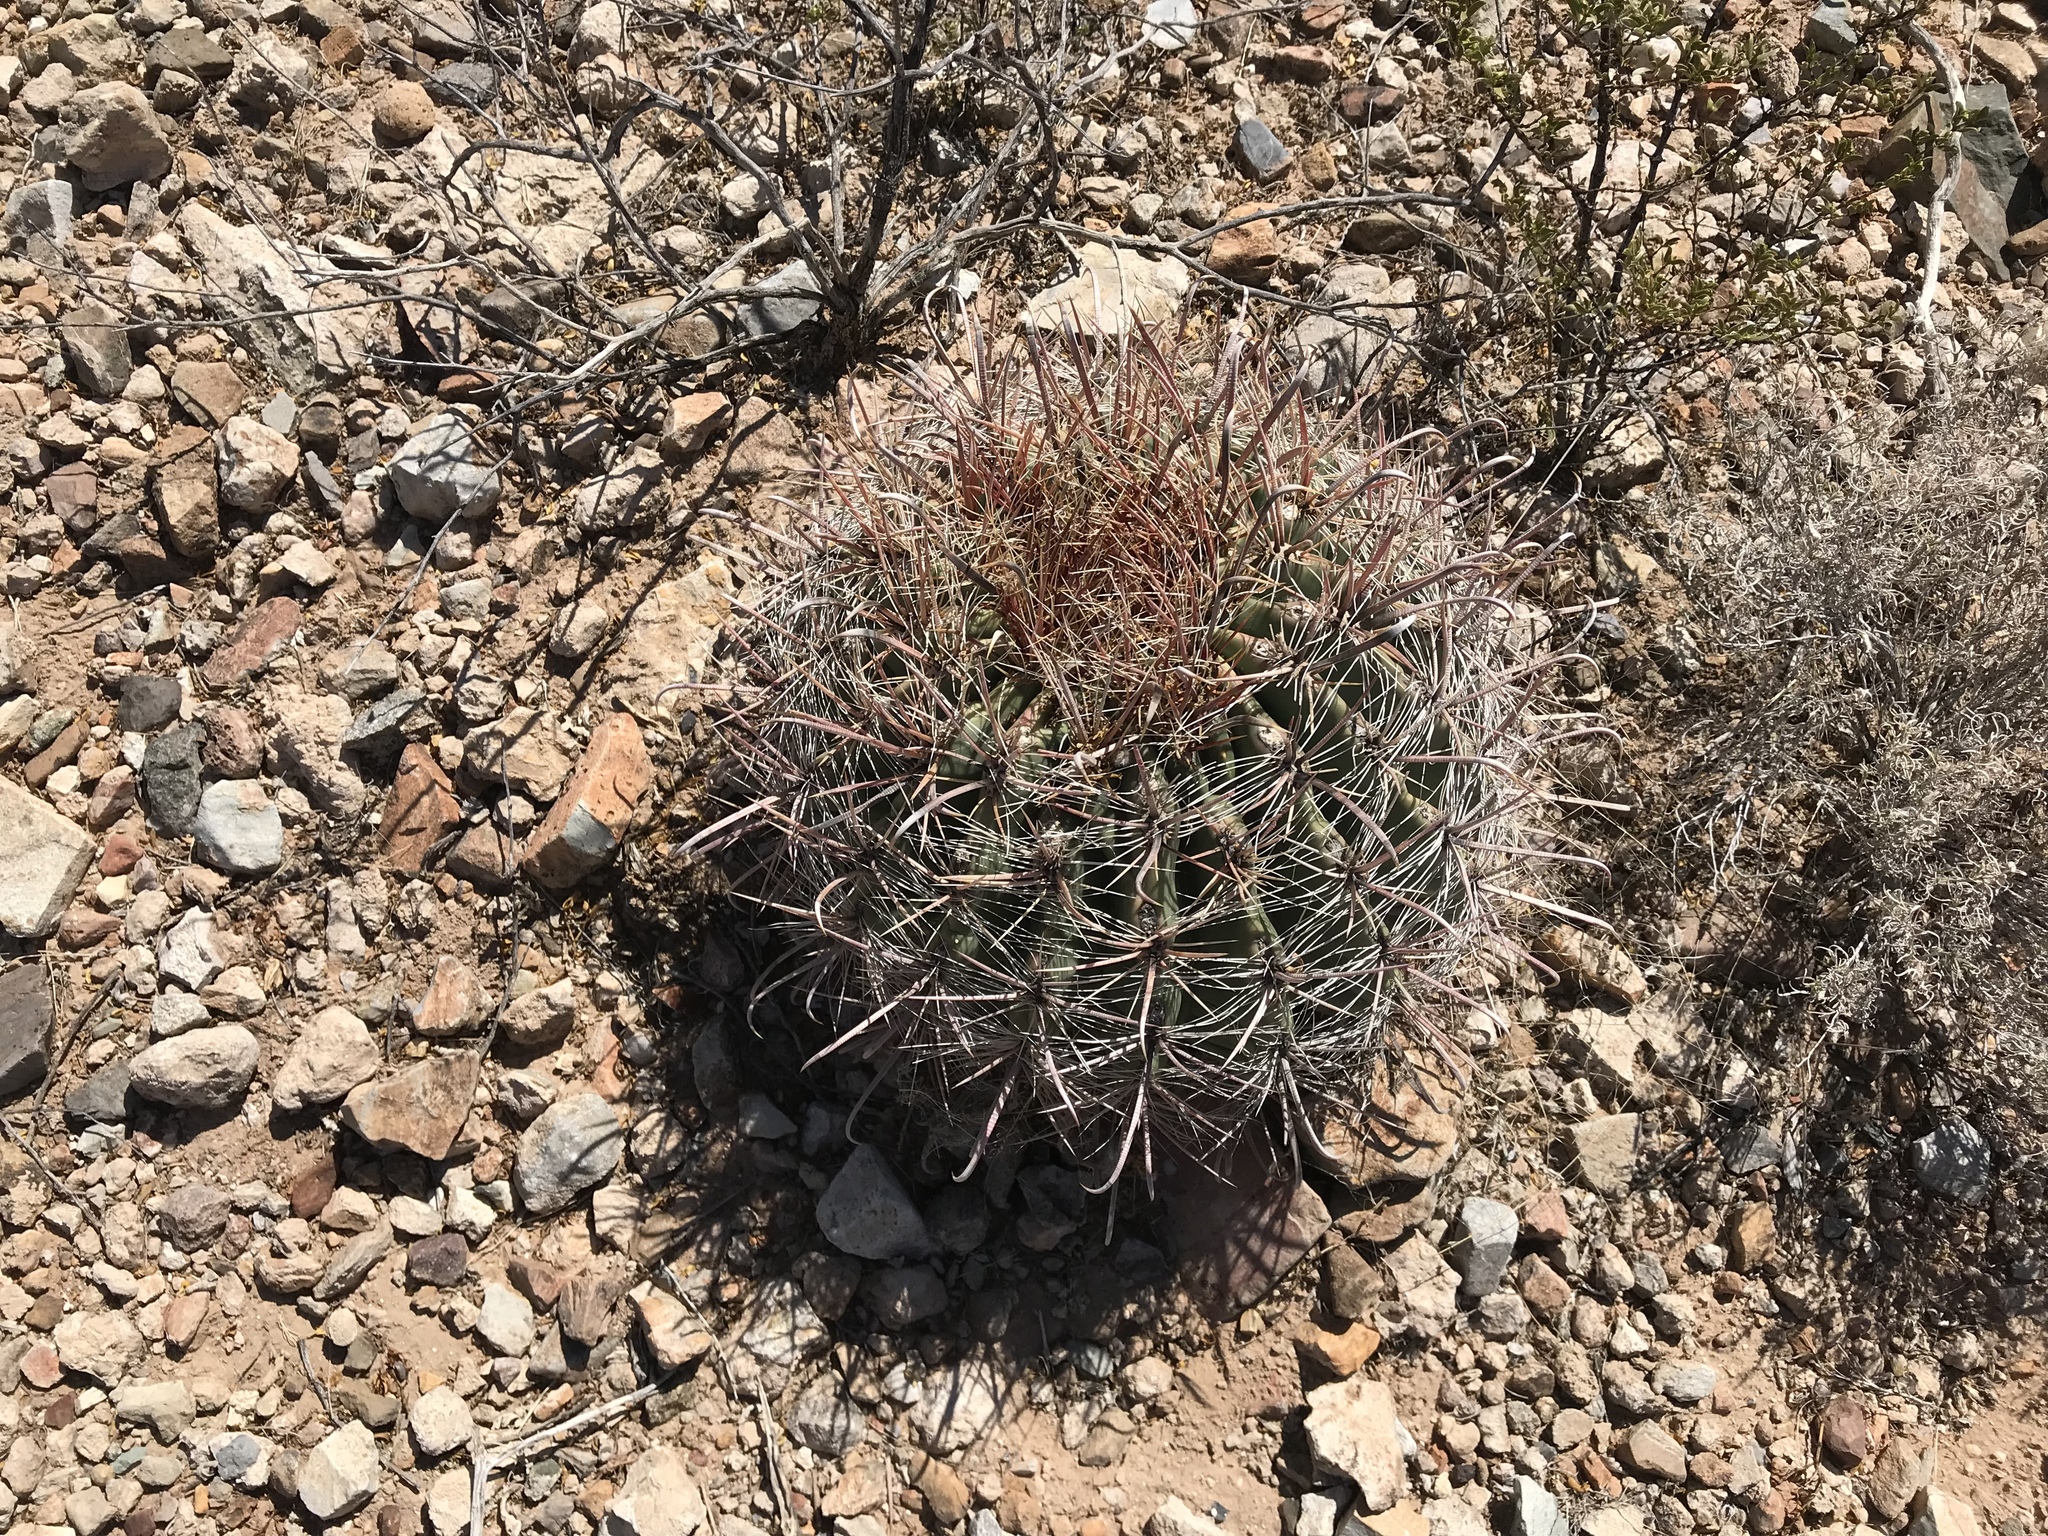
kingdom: Plantae
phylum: Tracheophyta
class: Magnoliopsida
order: Caryophyllales
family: Cactaceae
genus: Ferocactus
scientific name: Ferocactus wislizeni
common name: Candy barrel cactus
